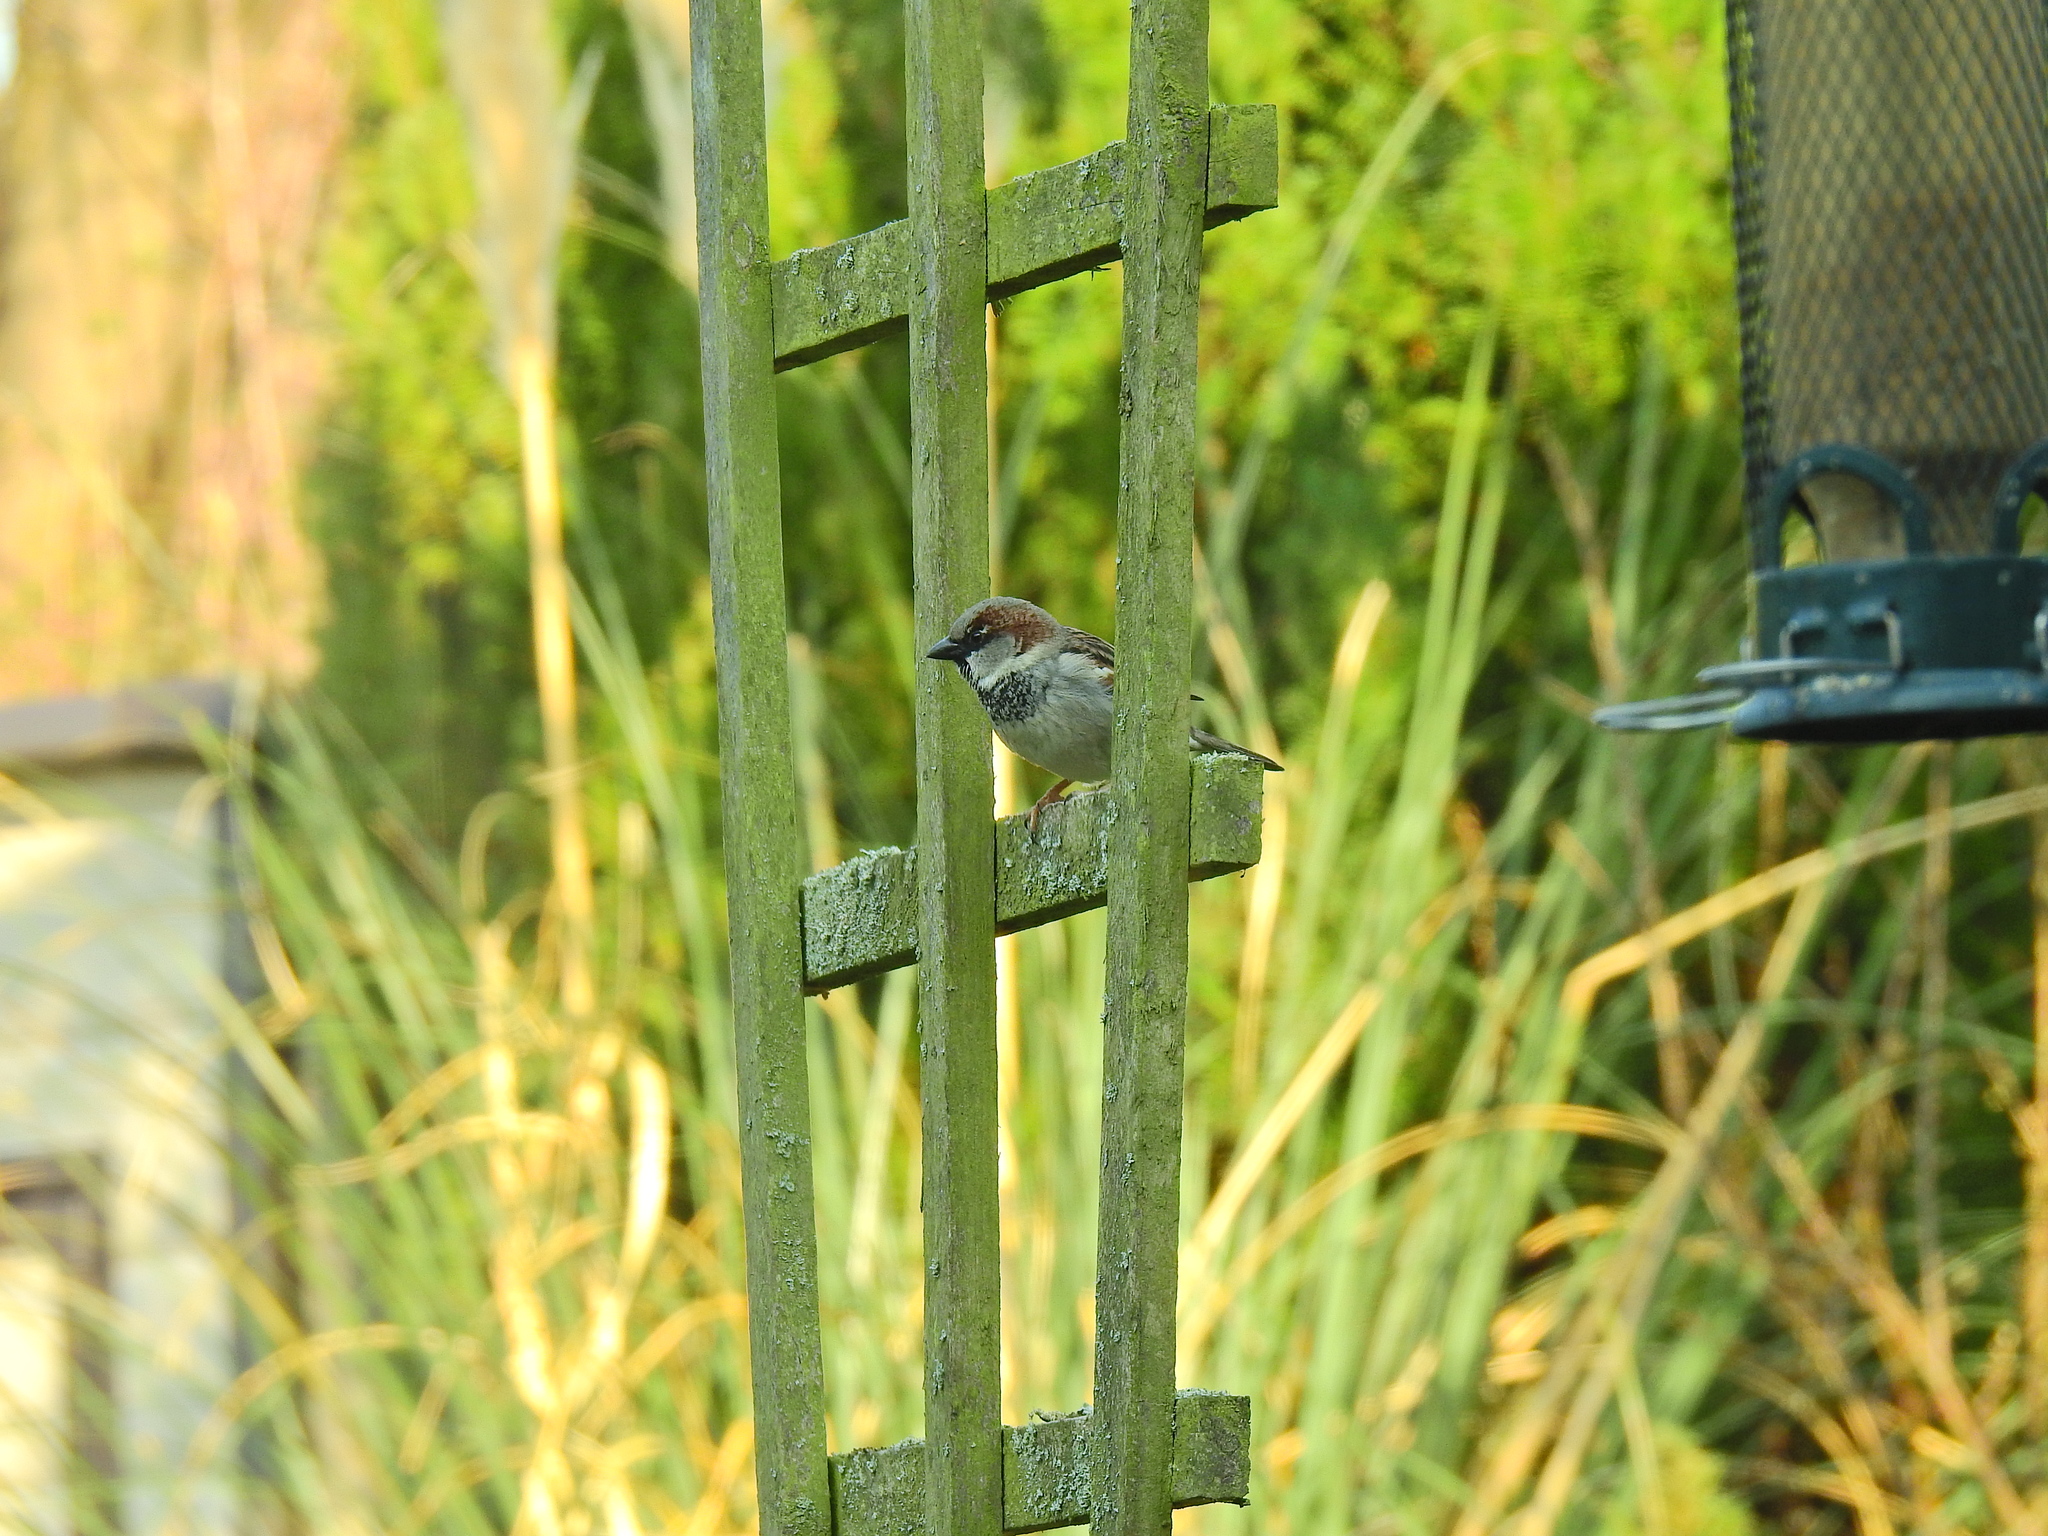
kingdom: Animalia
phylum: Chordata
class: Aves
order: Passeriformes
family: Passeridae
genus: Passer
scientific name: Passer domesticus
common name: House sparrow
